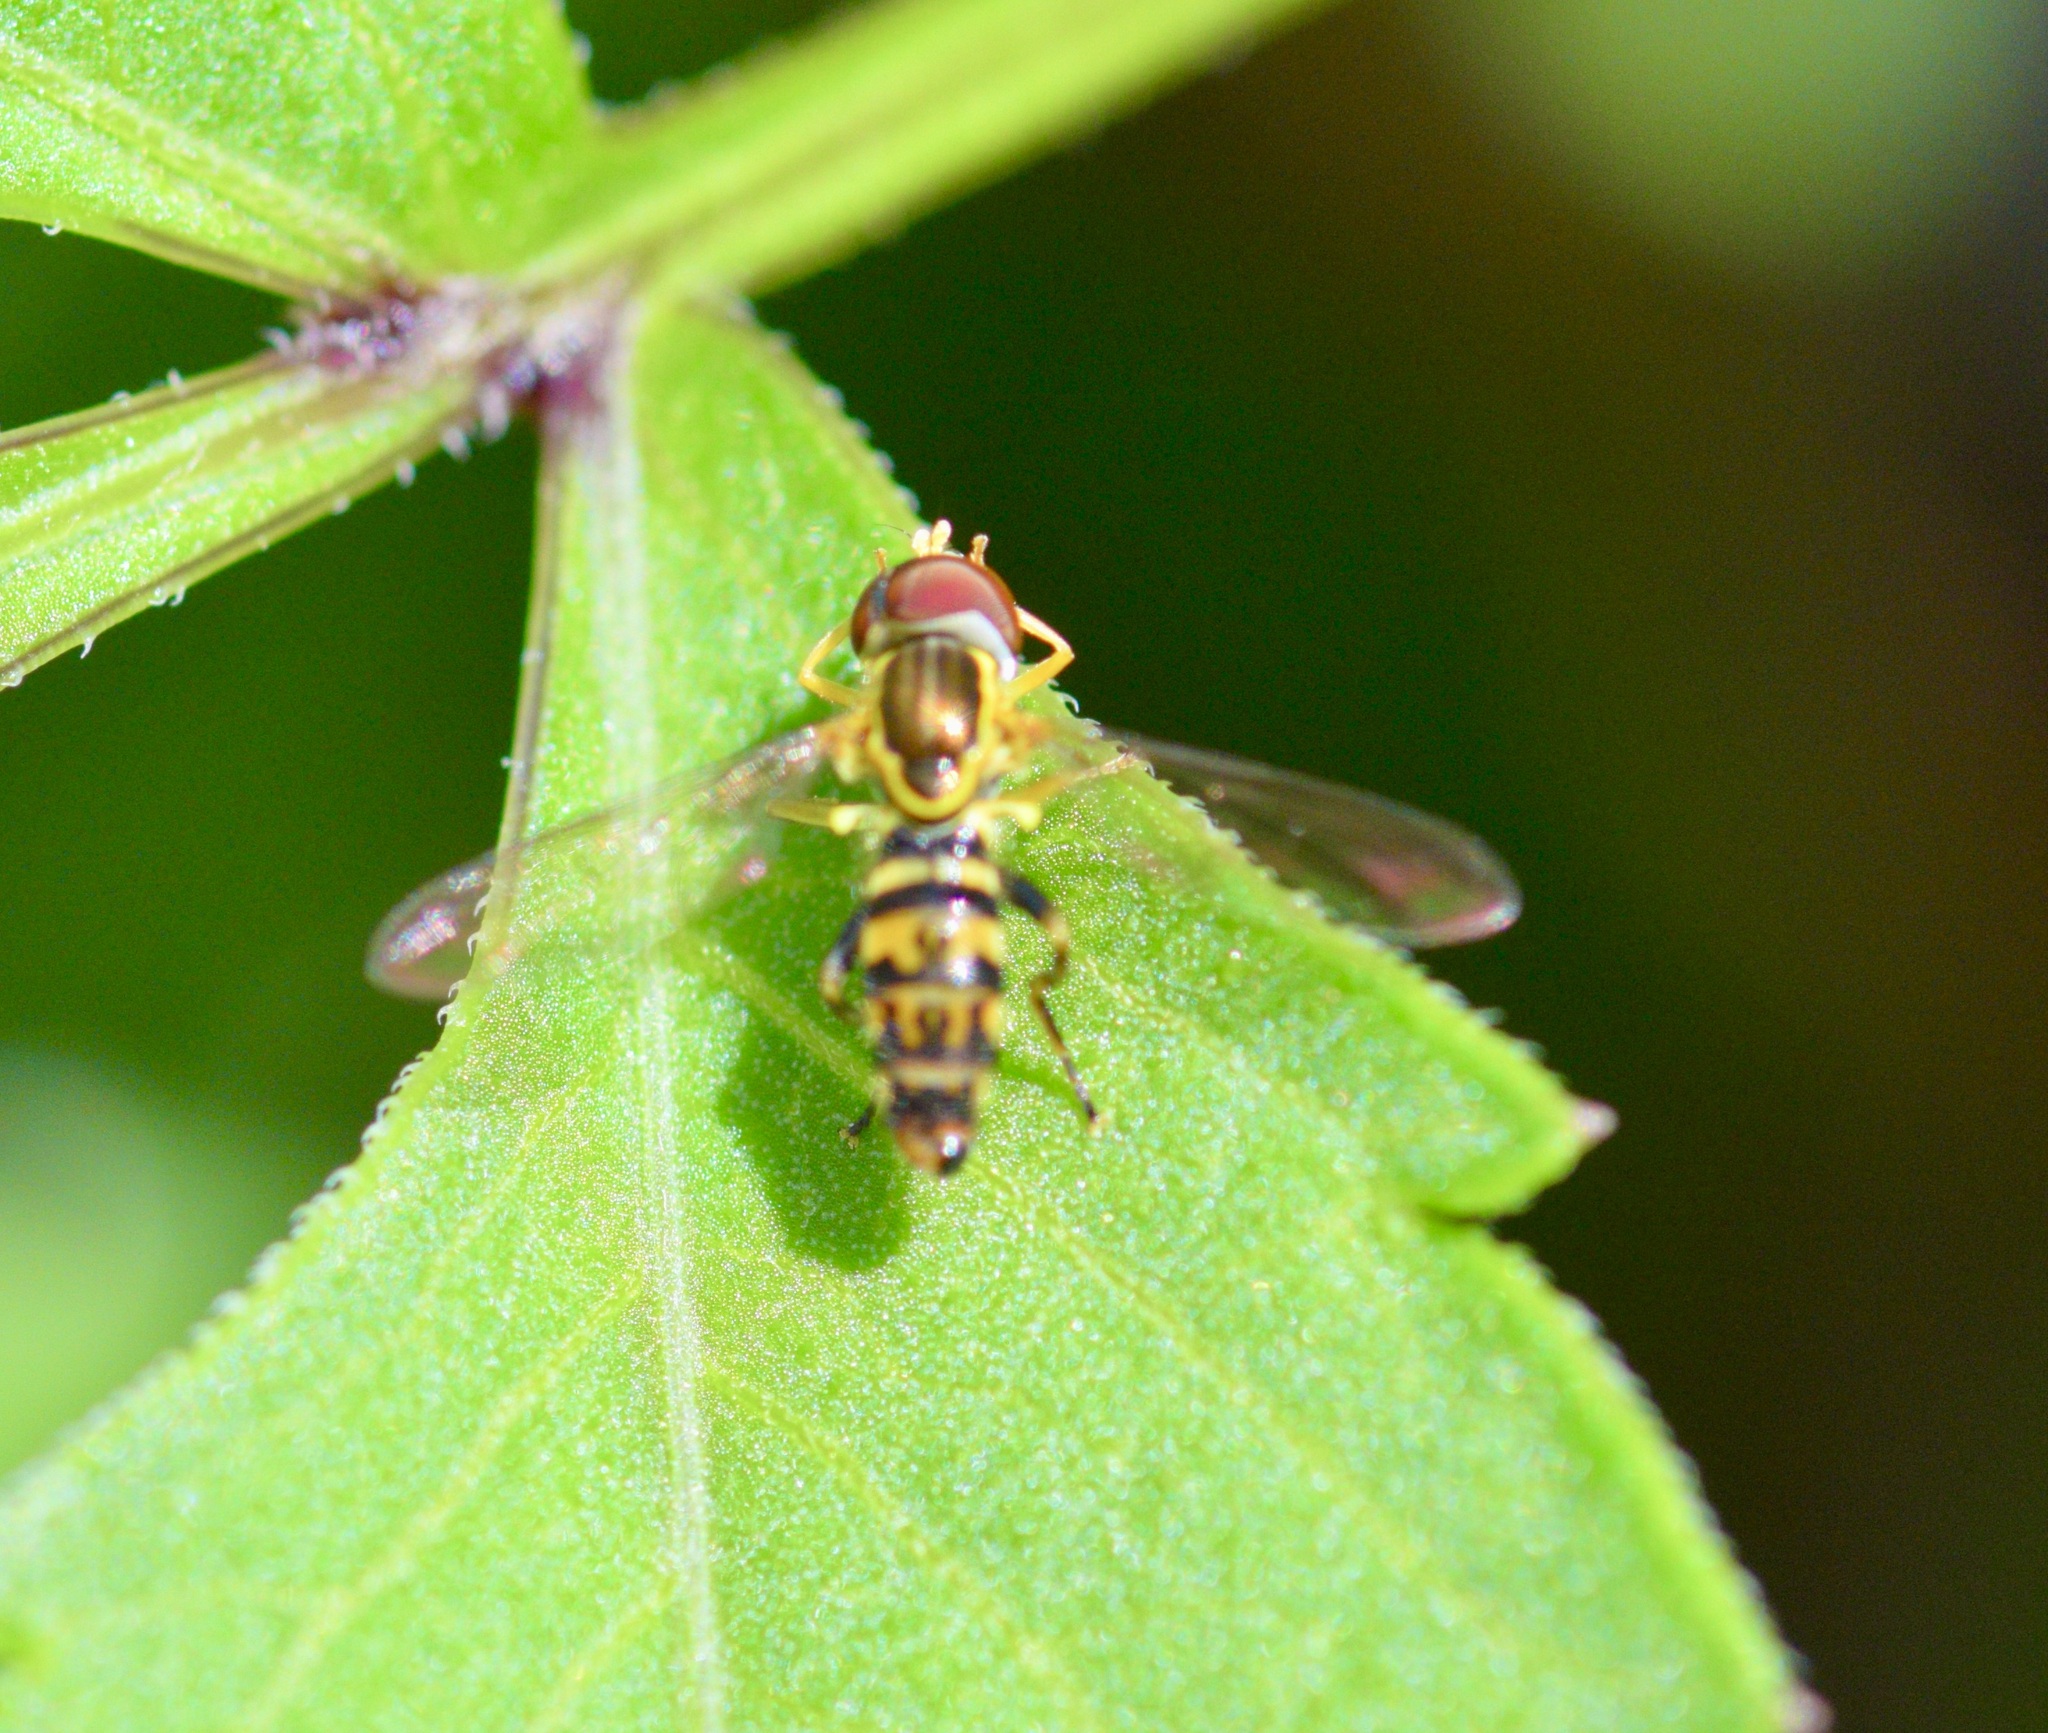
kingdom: Animalia
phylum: Arthropoda
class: Insecta
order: Diptera
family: Syrphidae
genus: Toxomerus
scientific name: Toxomerus geminatus
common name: Eastern calligrapher
